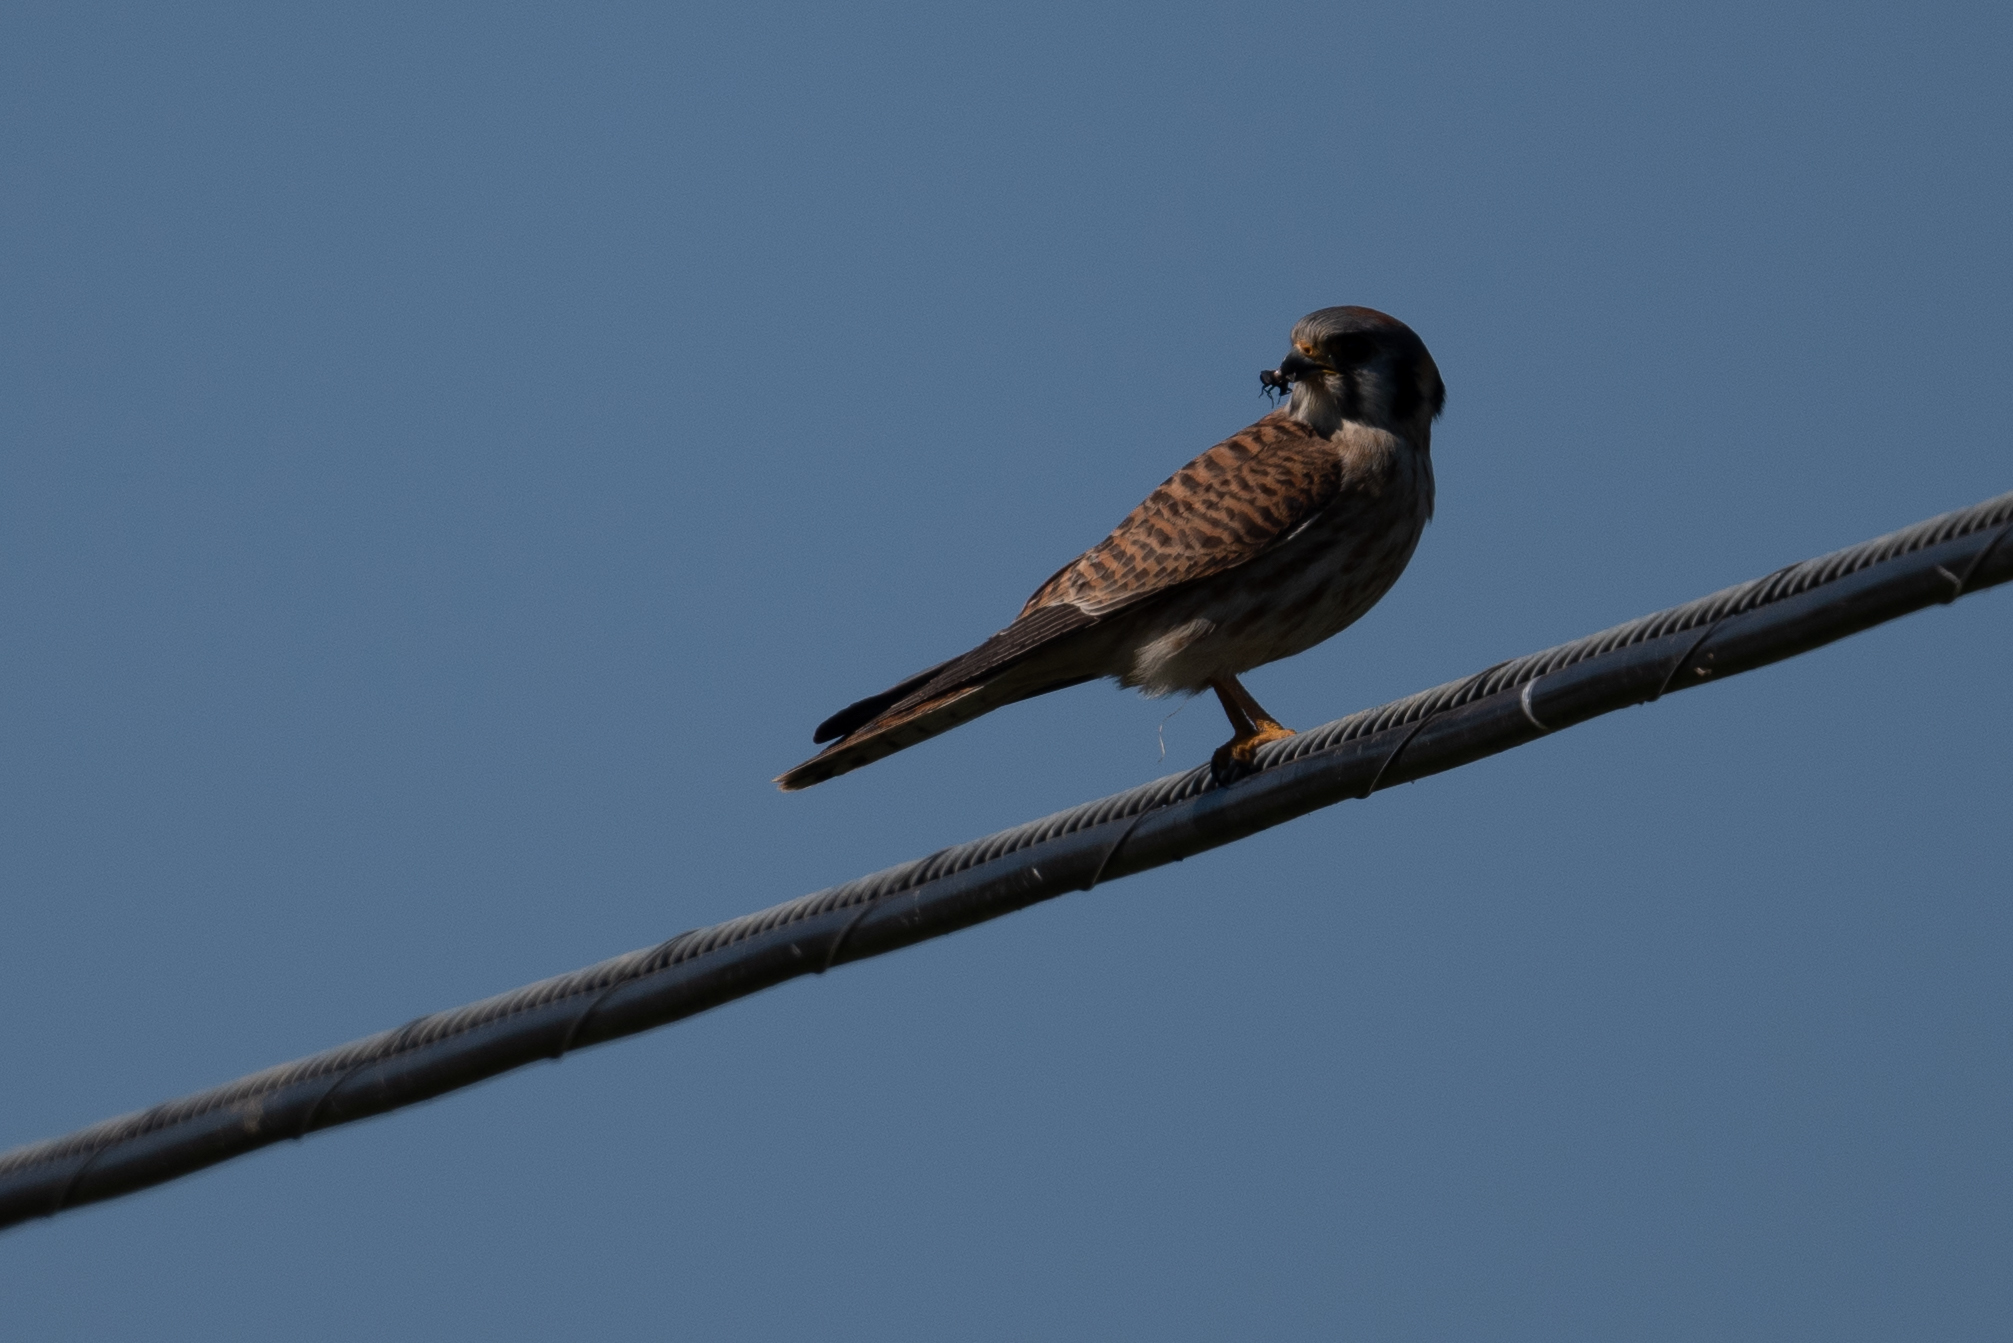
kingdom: Animalia
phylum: Chordata
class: Aves
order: Falconiformes
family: Falconidae
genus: Falco
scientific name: Falco sparverius
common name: American kestrel
